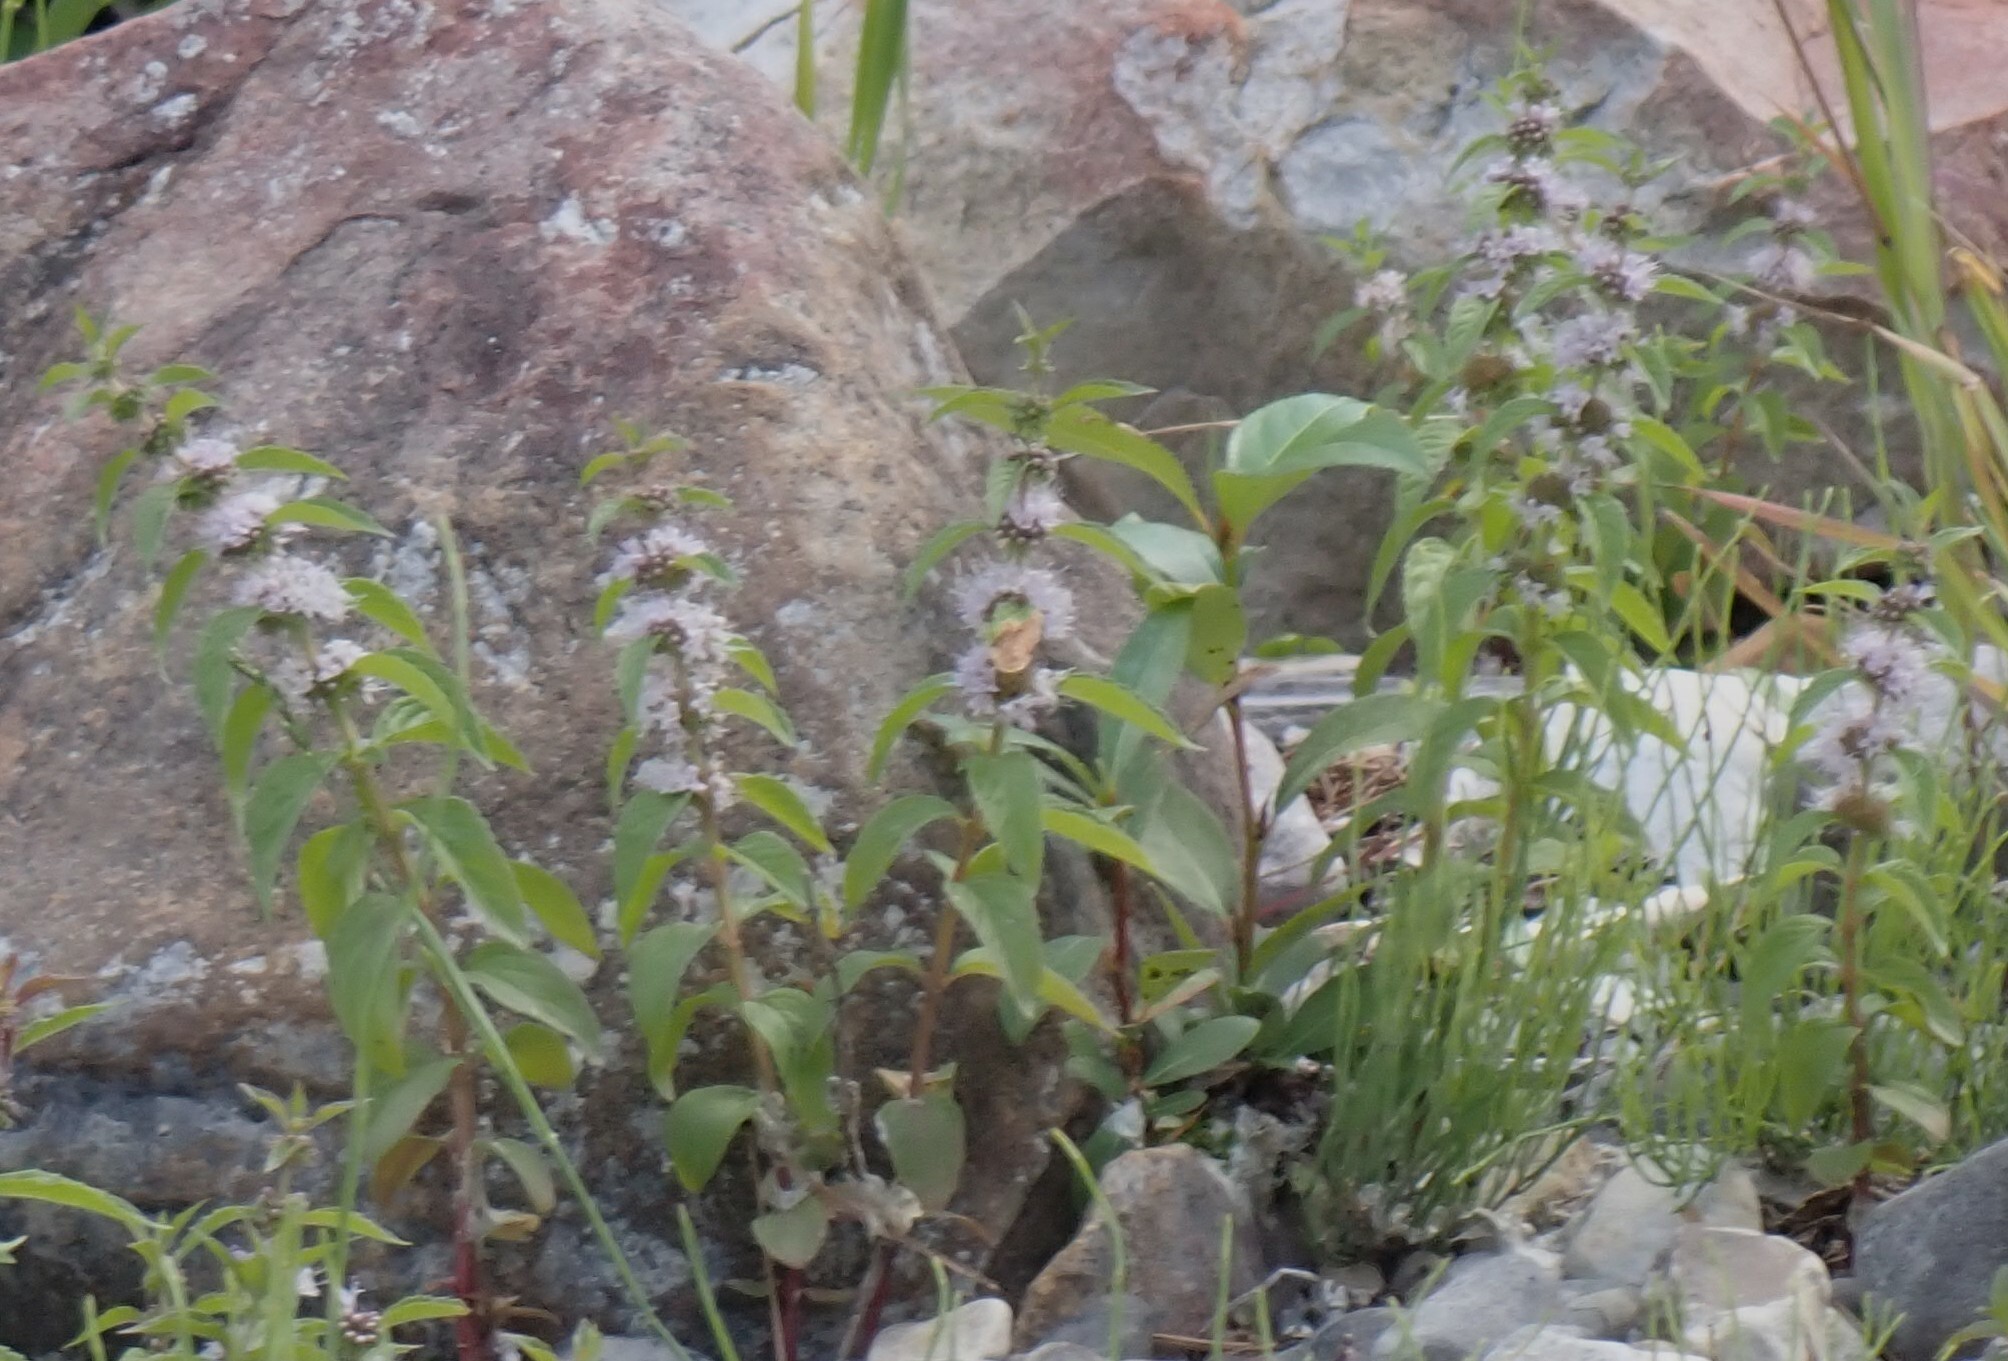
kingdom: Plantae
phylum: Tracheophyta
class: Magnoliopsida
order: Lamiales
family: Lamiaceae
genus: Mentha
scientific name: Mentha canadensis
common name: American corn mint
